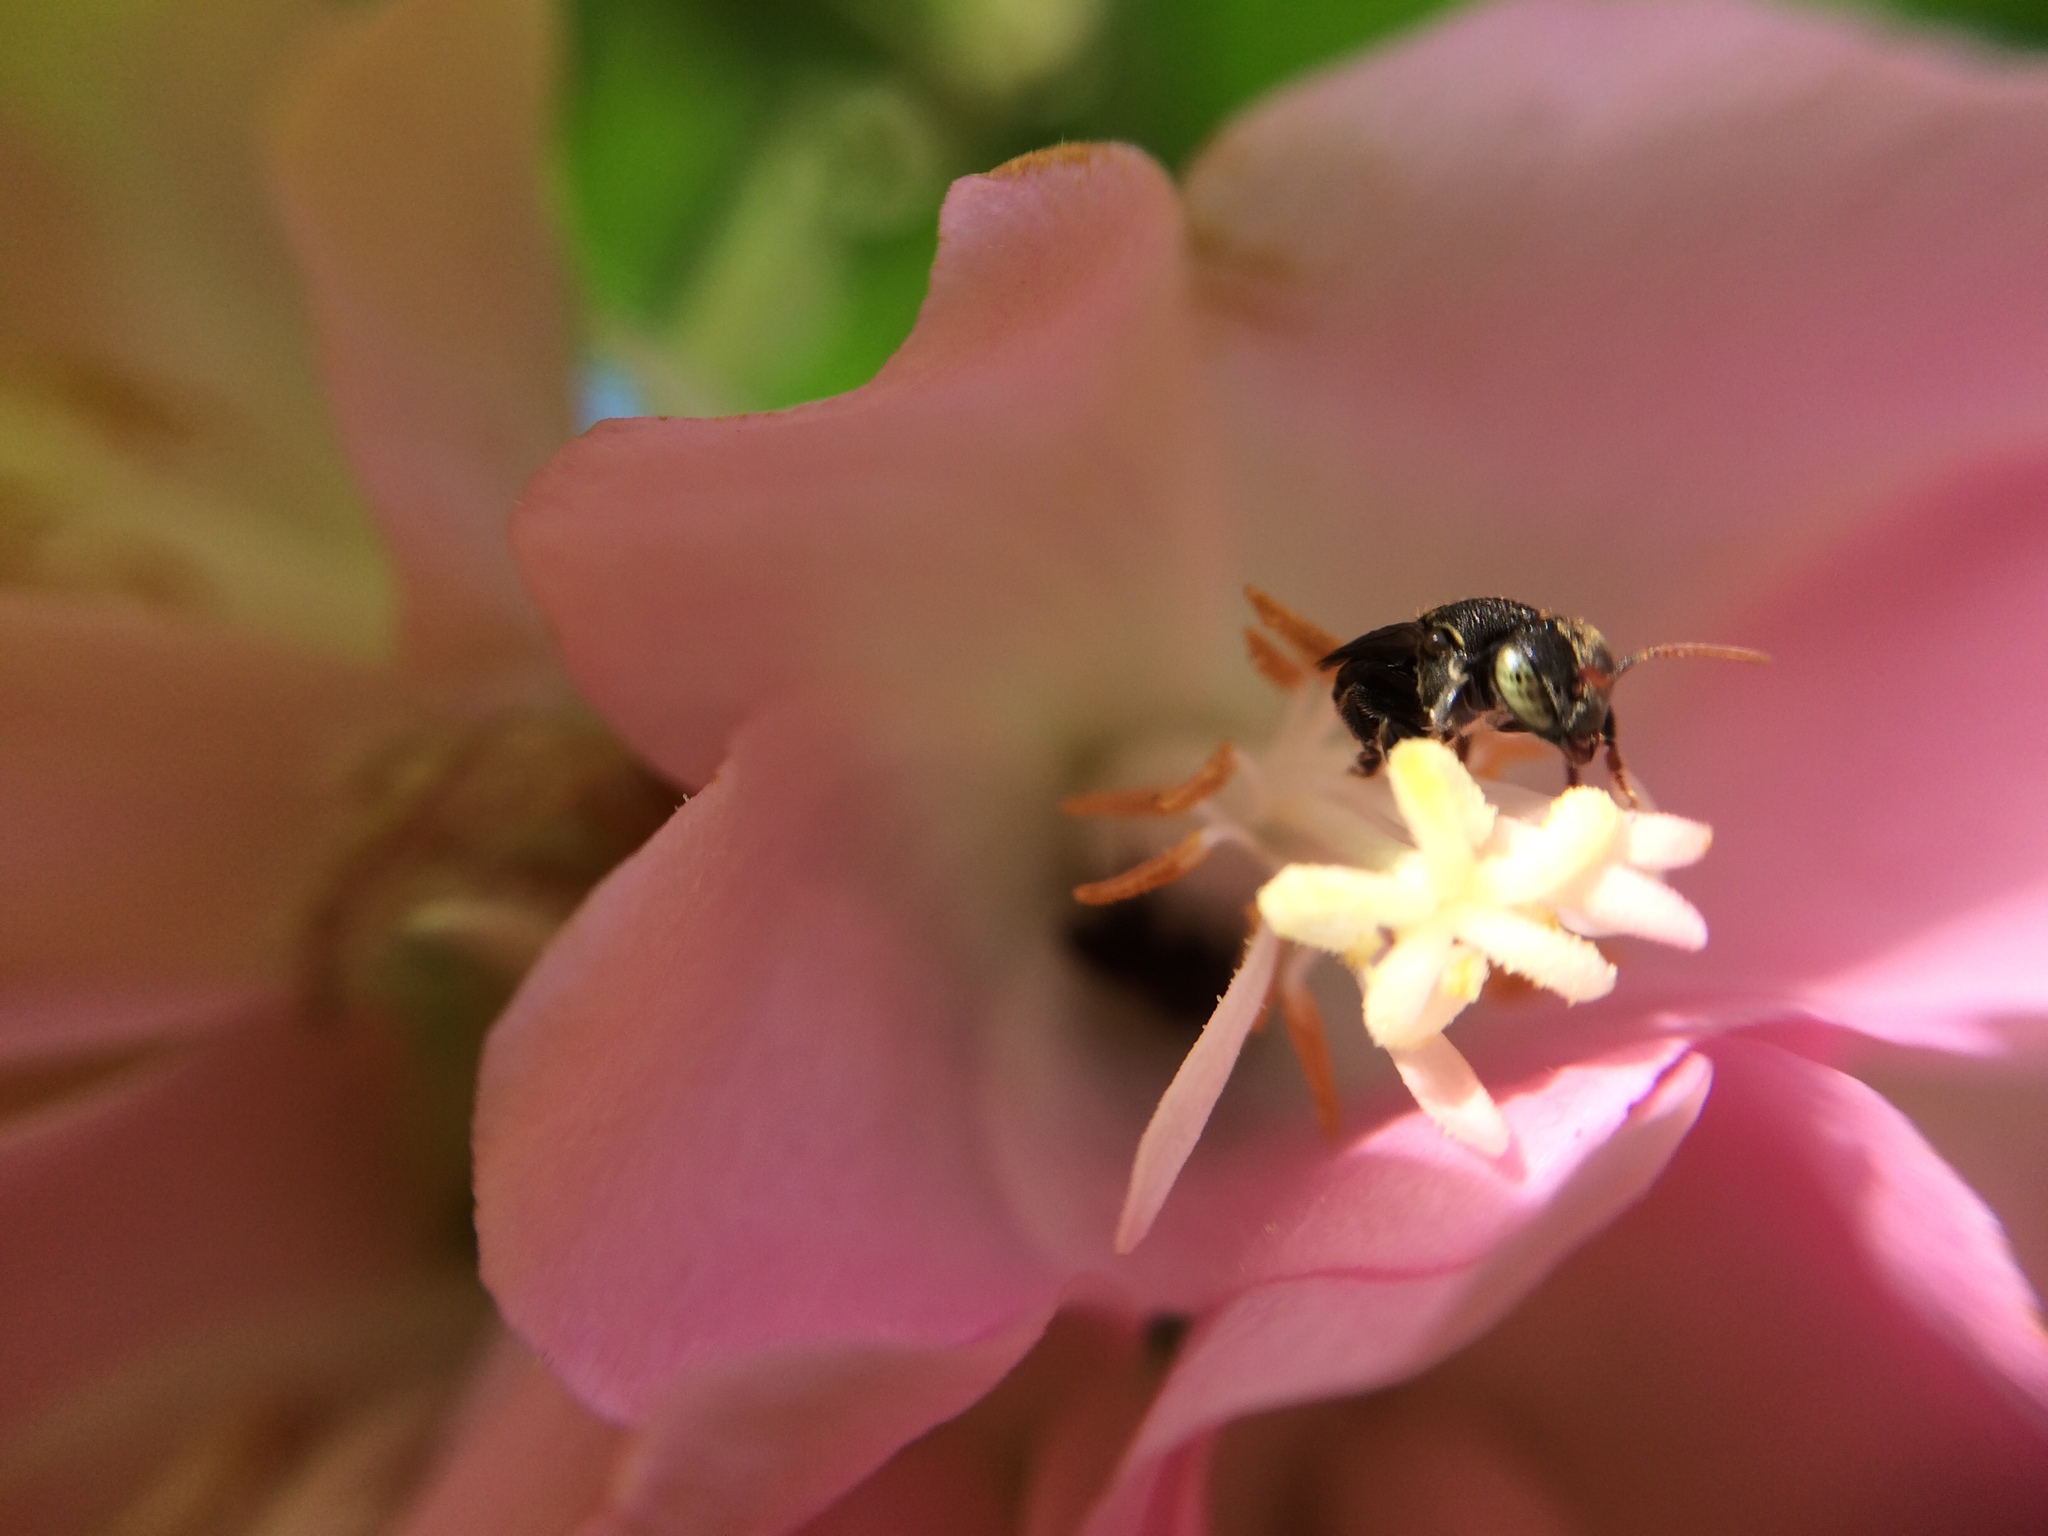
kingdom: Animalia
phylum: Arthropoda
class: Insecta
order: Hymenoptera
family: Apidae
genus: Nannotrigona
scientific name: Nannotrigona perilampoides
